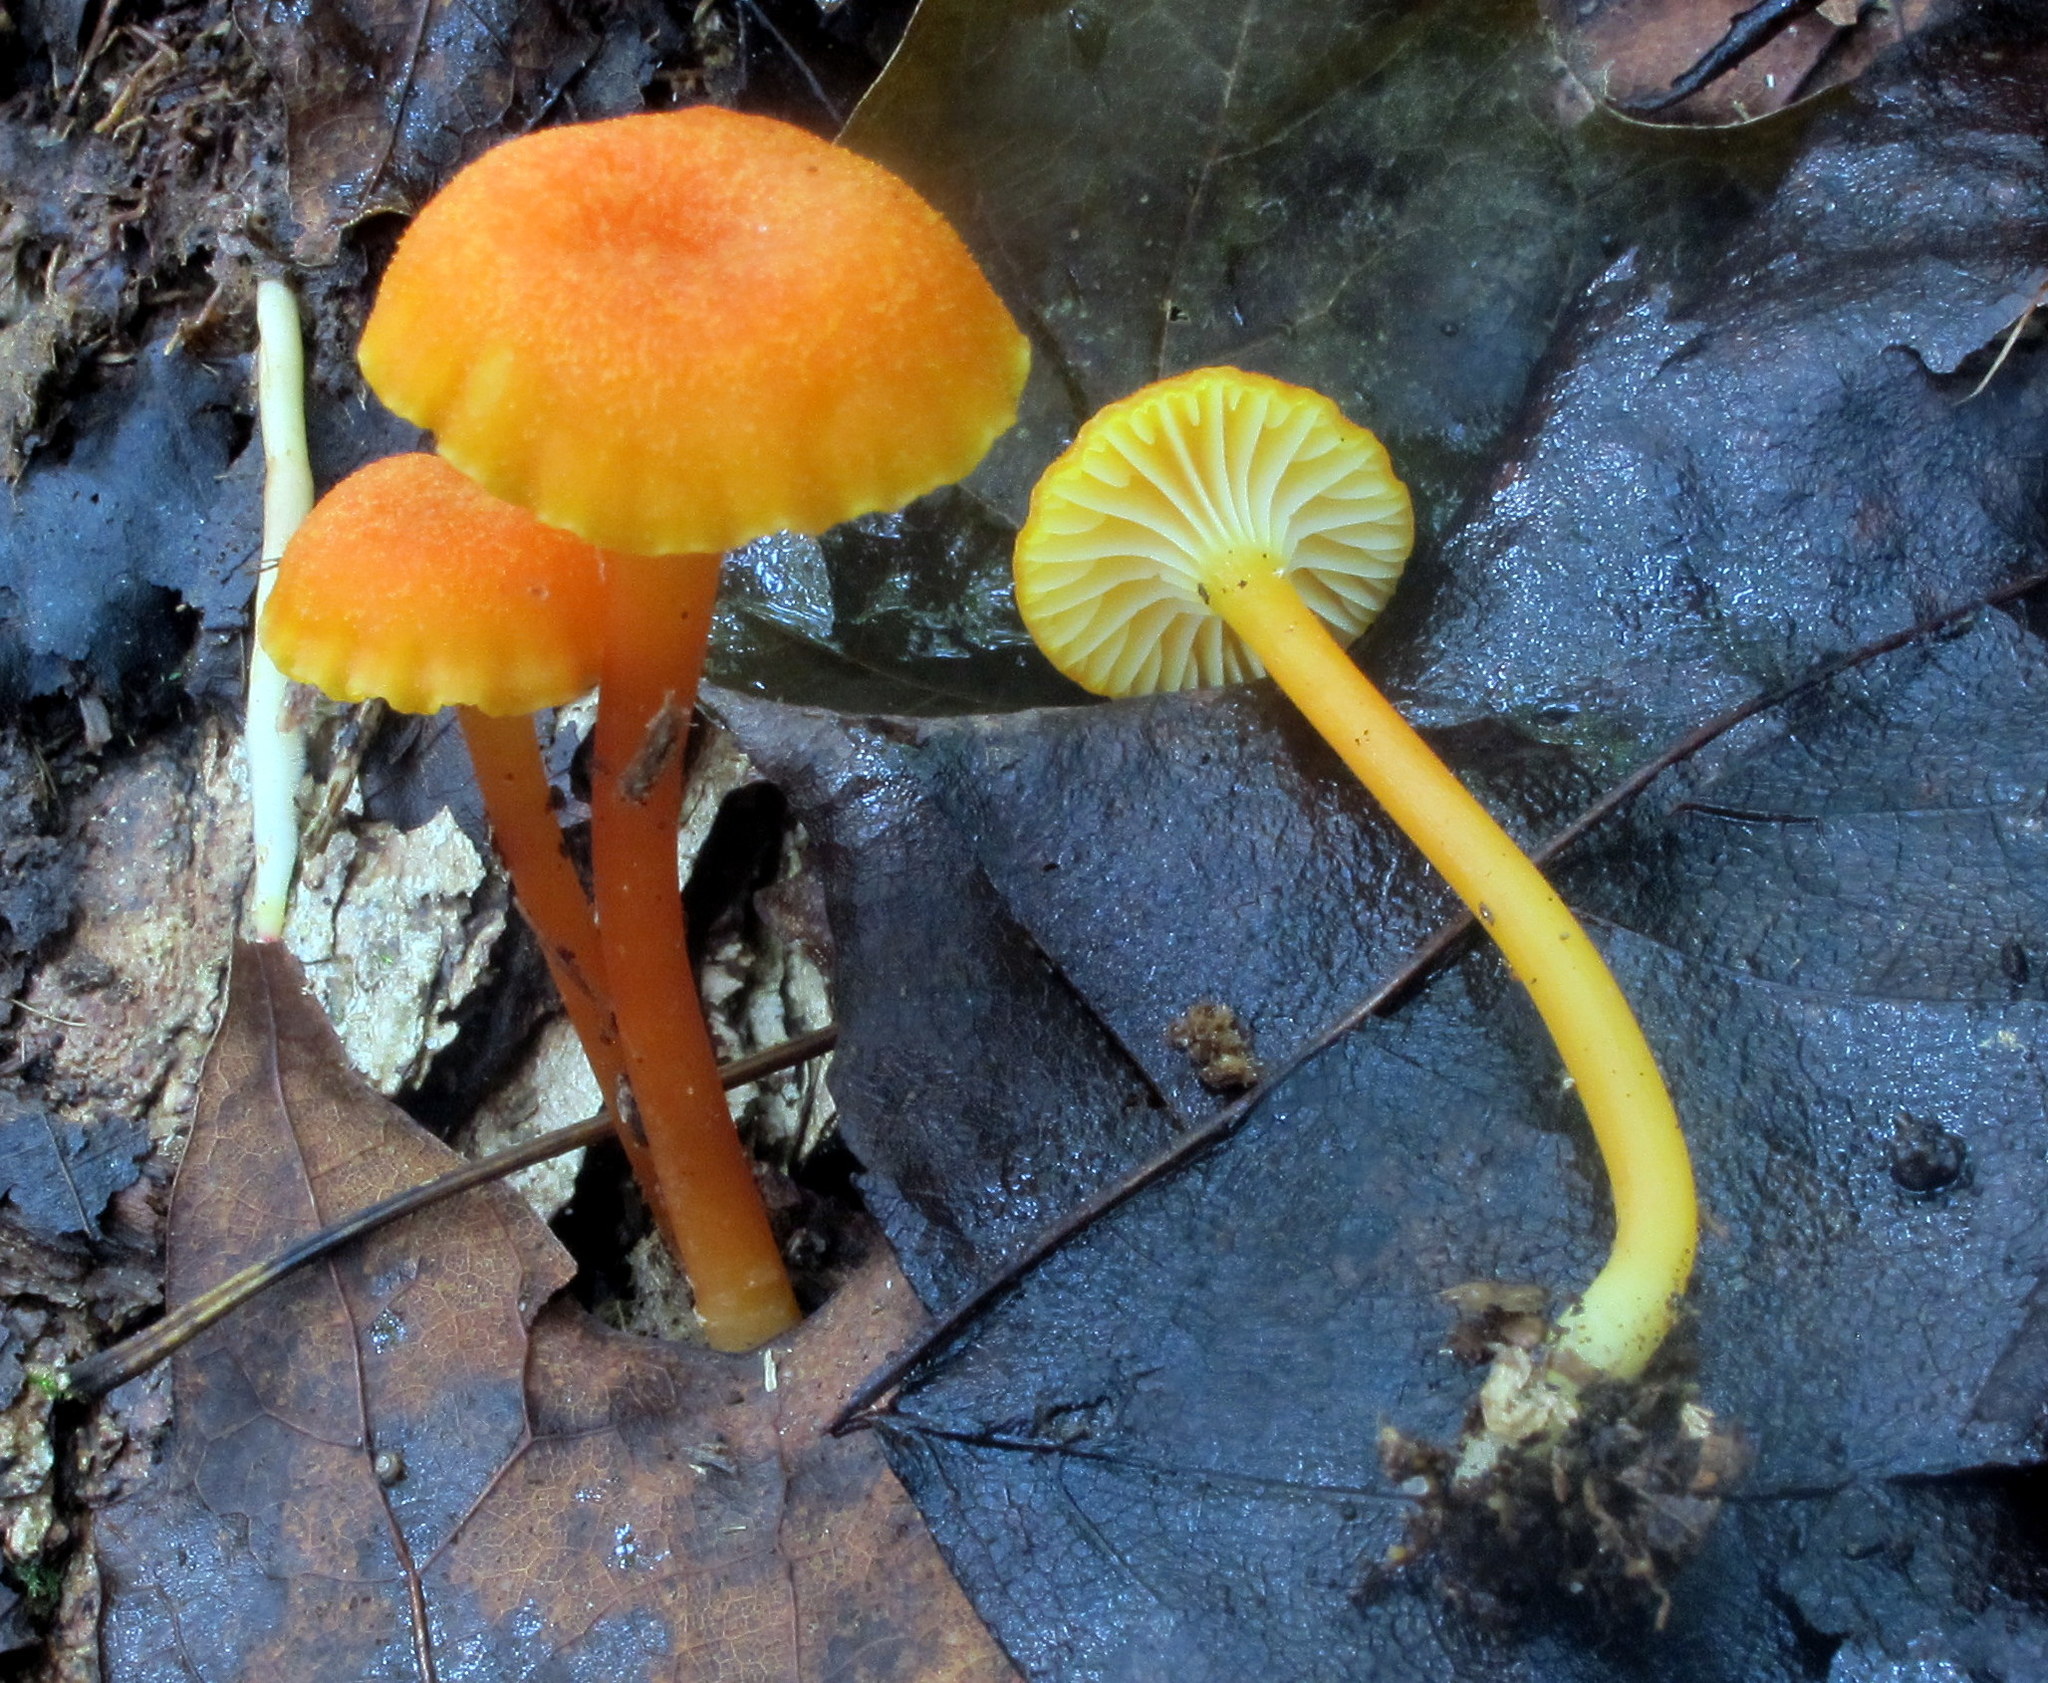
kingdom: Fungi
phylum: Basidiomycota
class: Agaricomycetes
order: Agaricales
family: Hygrophoraceae
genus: Hygrocybe
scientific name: Hygrocybe cantharellus
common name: Goblet waxcap
